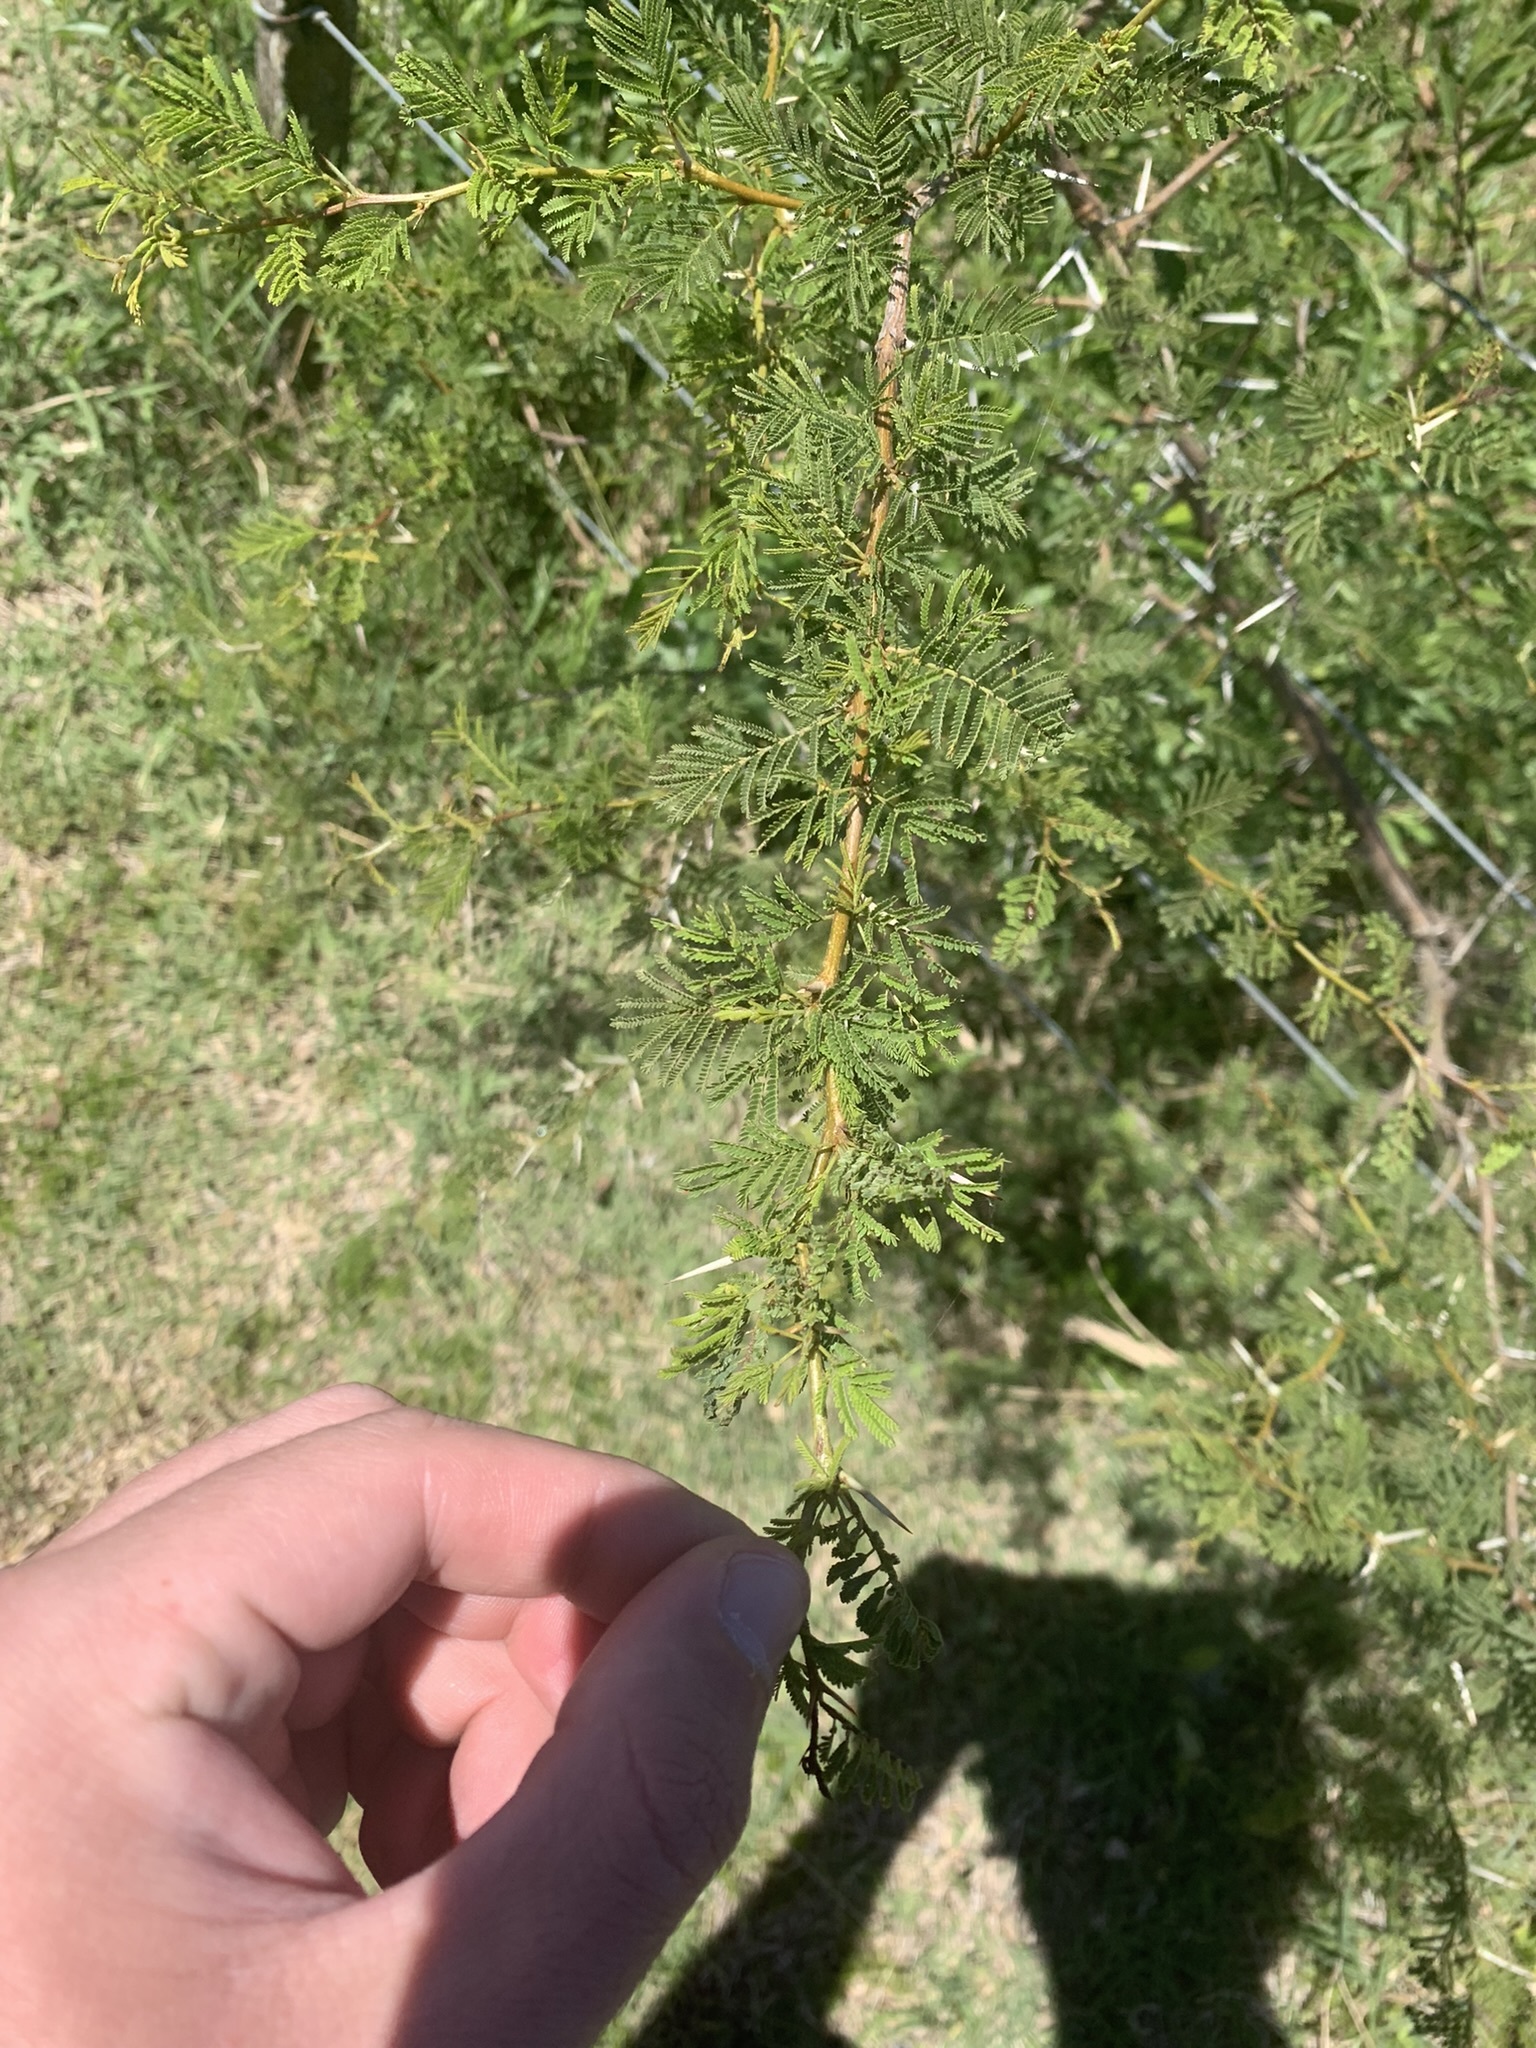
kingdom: Plantae
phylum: Tracheophyta
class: Magnoliopsida
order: Fabales
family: Fabaceae
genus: Vachellia
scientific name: Vachellia caven
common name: Roman cassie
